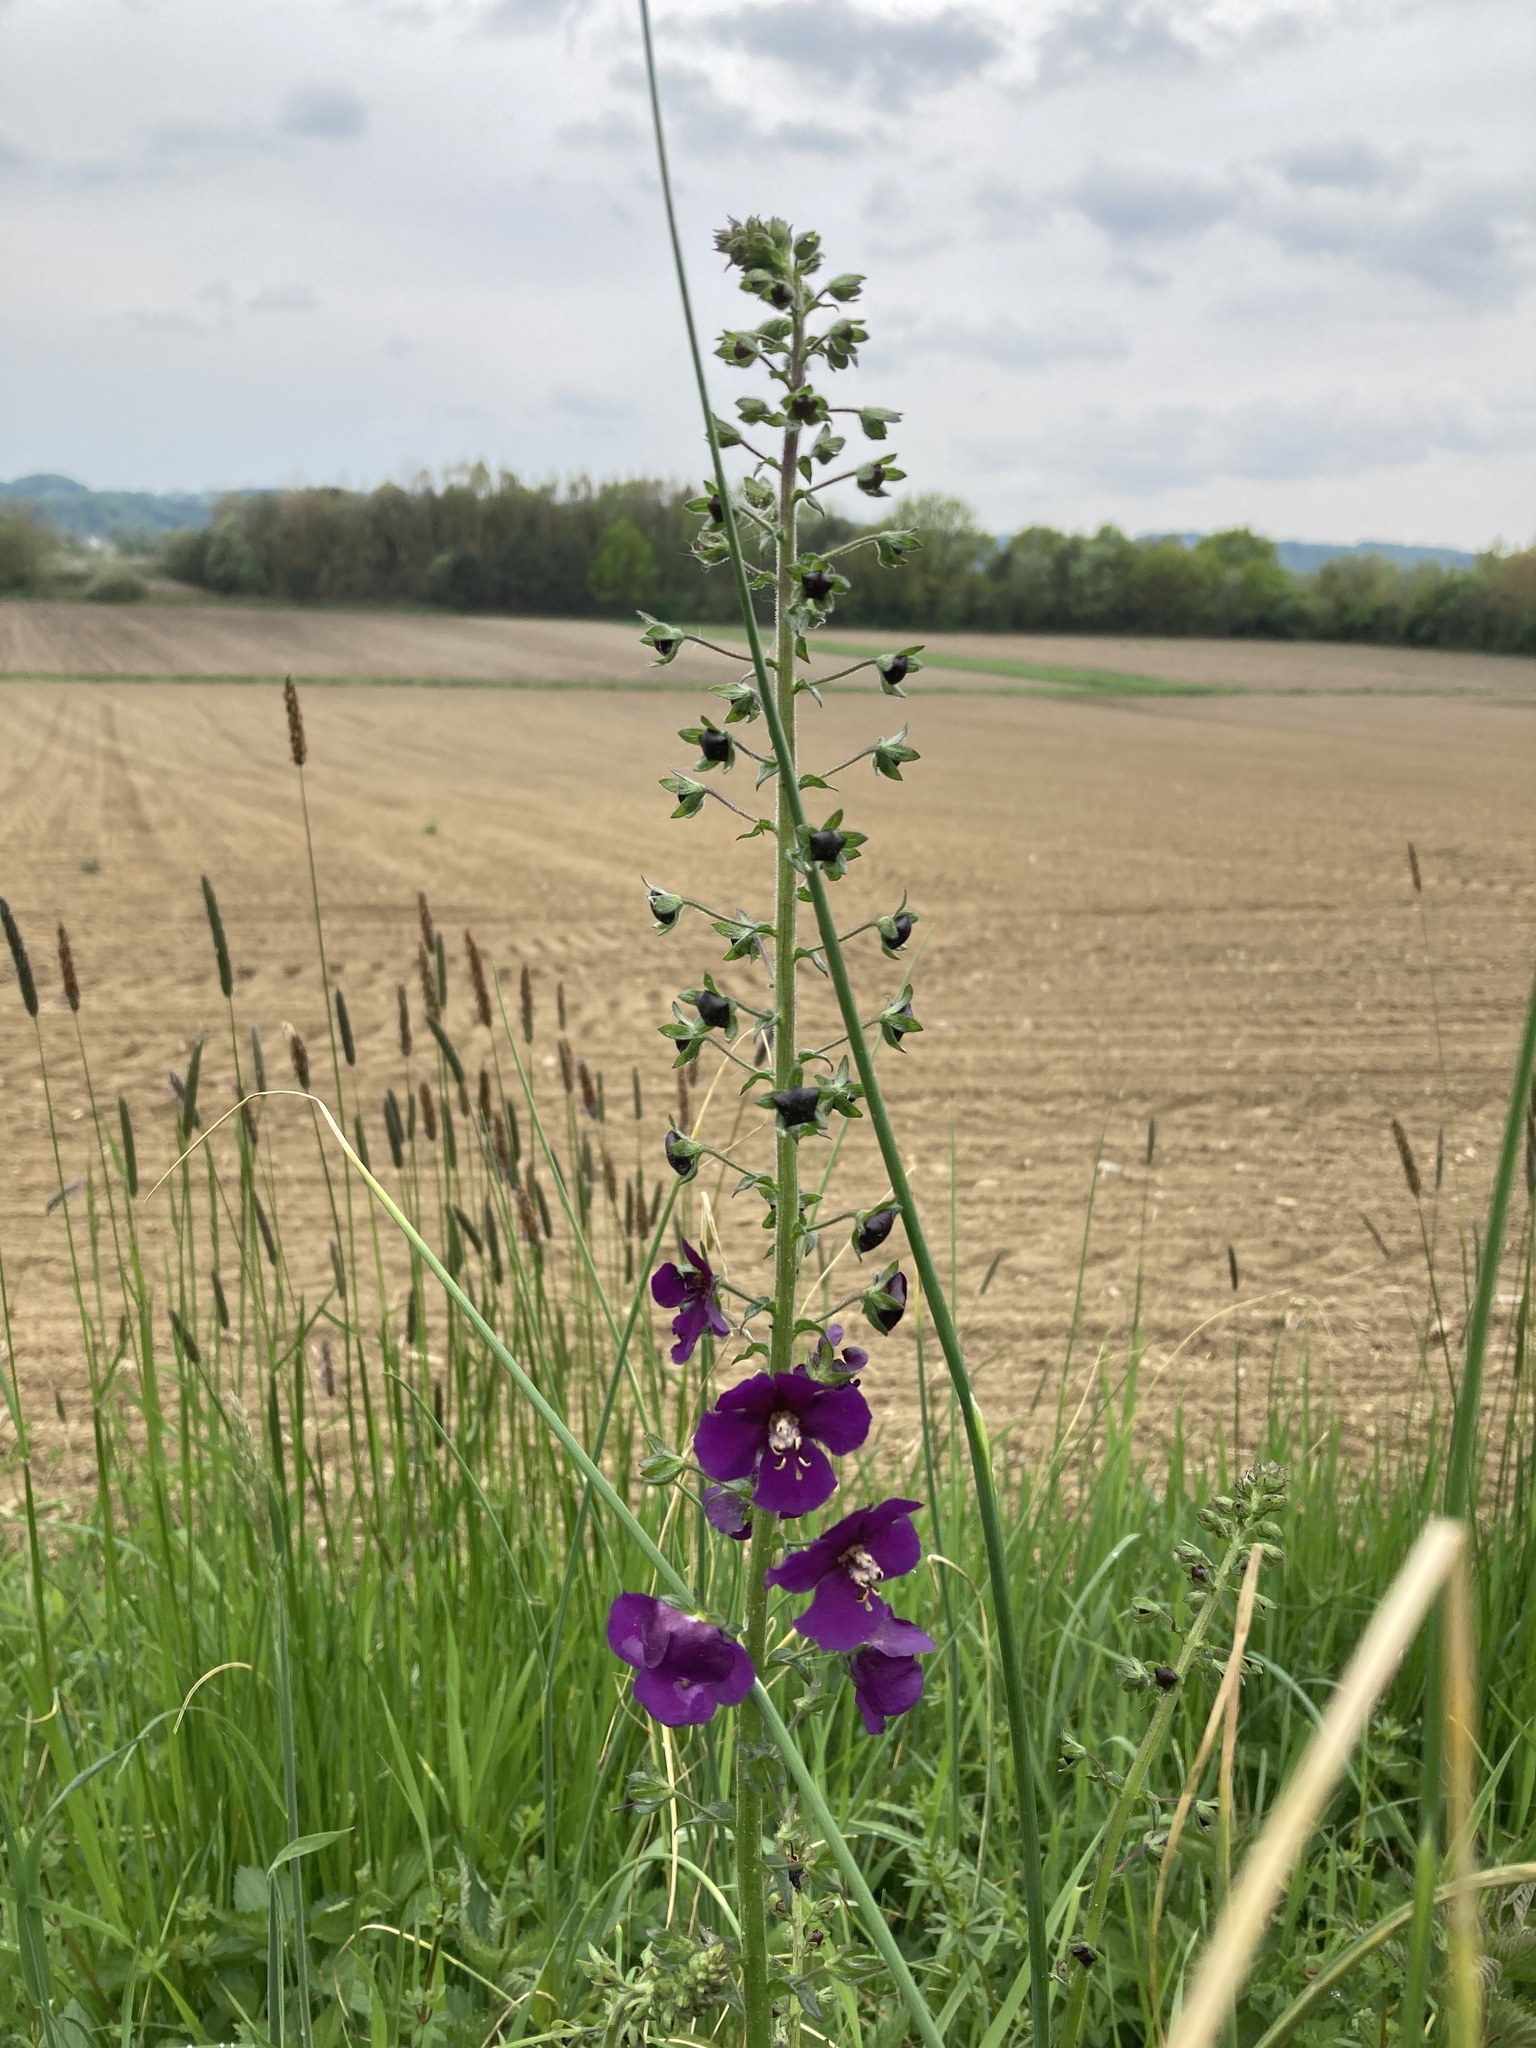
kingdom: Plantae
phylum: Tracheophyta
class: Magnoliopsida
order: Lamiales
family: Scrophulariaceae
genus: Verbascum
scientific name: Verbascum phoeniceum
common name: Purple mullein
